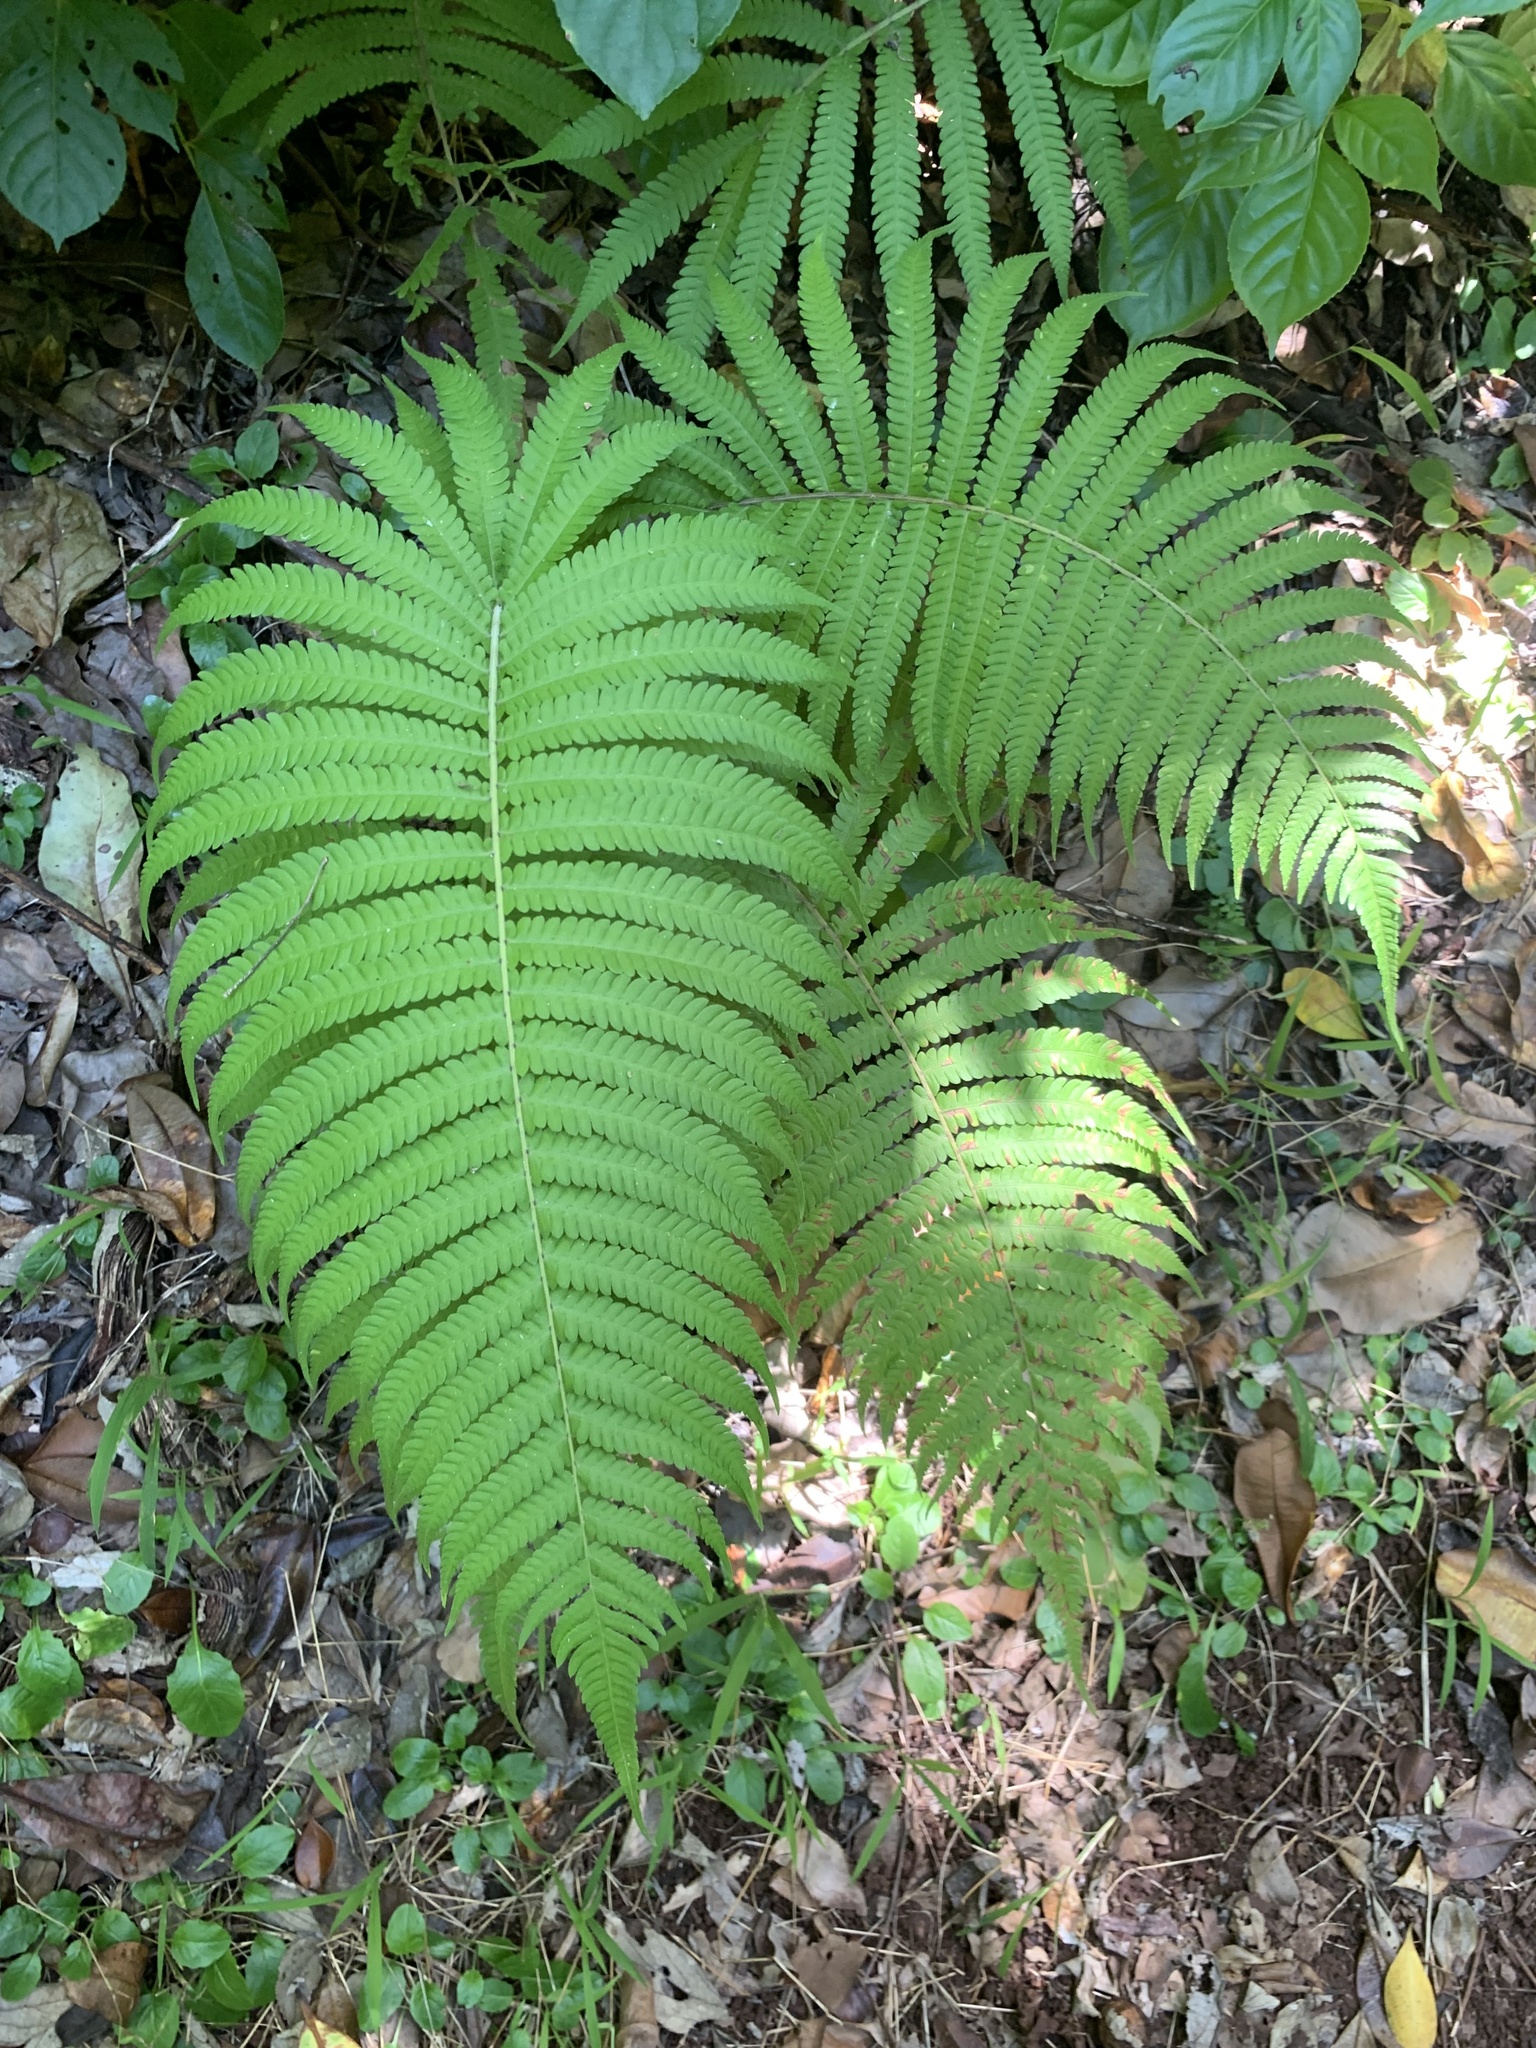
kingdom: Plantae
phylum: Tracheophyta
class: Polypodiopsida
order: Polypodiales
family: Thelypteridaceae
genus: Christella
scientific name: Christella parasitica
